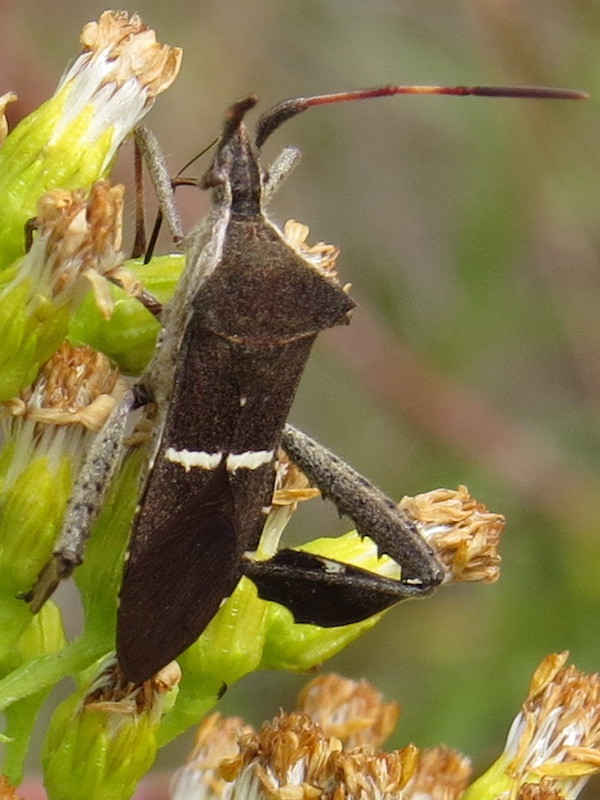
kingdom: Animalia
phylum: Arthropoda
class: Insecta
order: Hemiptera
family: Coreidae
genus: Leptoglossus
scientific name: Leptoglossus phyllopus
